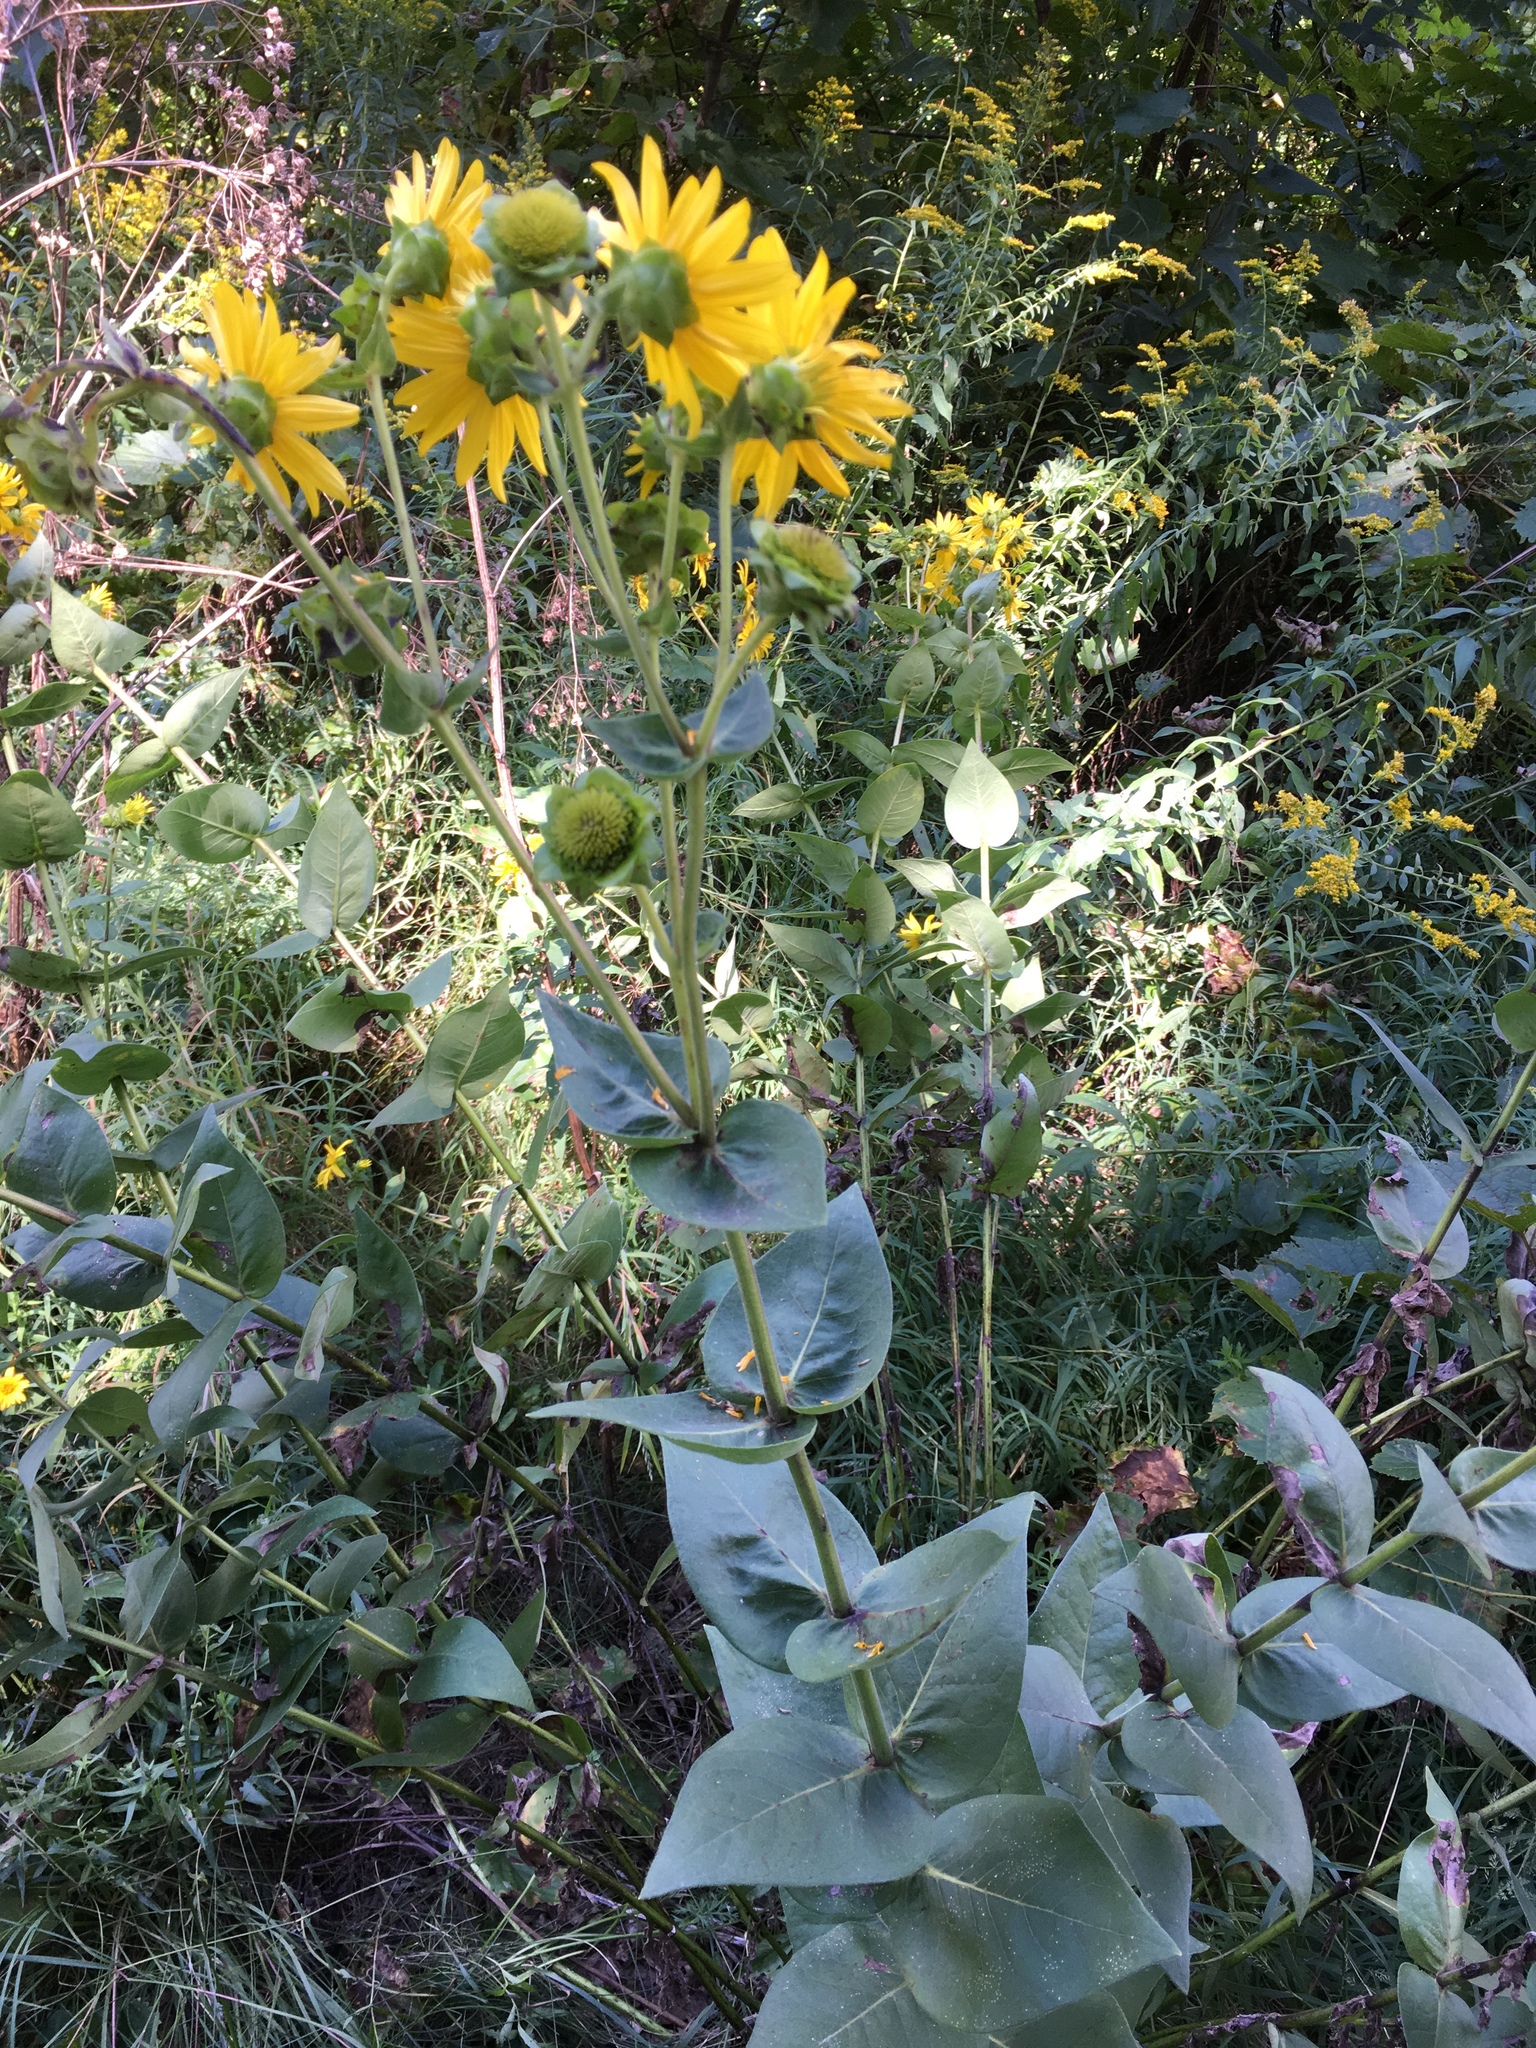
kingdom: Plantae
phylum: Tracheophyta
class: Magnoliopsida
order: Asterales
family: Asteraceae
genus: Silphium
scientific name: Silphium integrifolium
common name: Whole-leaf rosinweed
